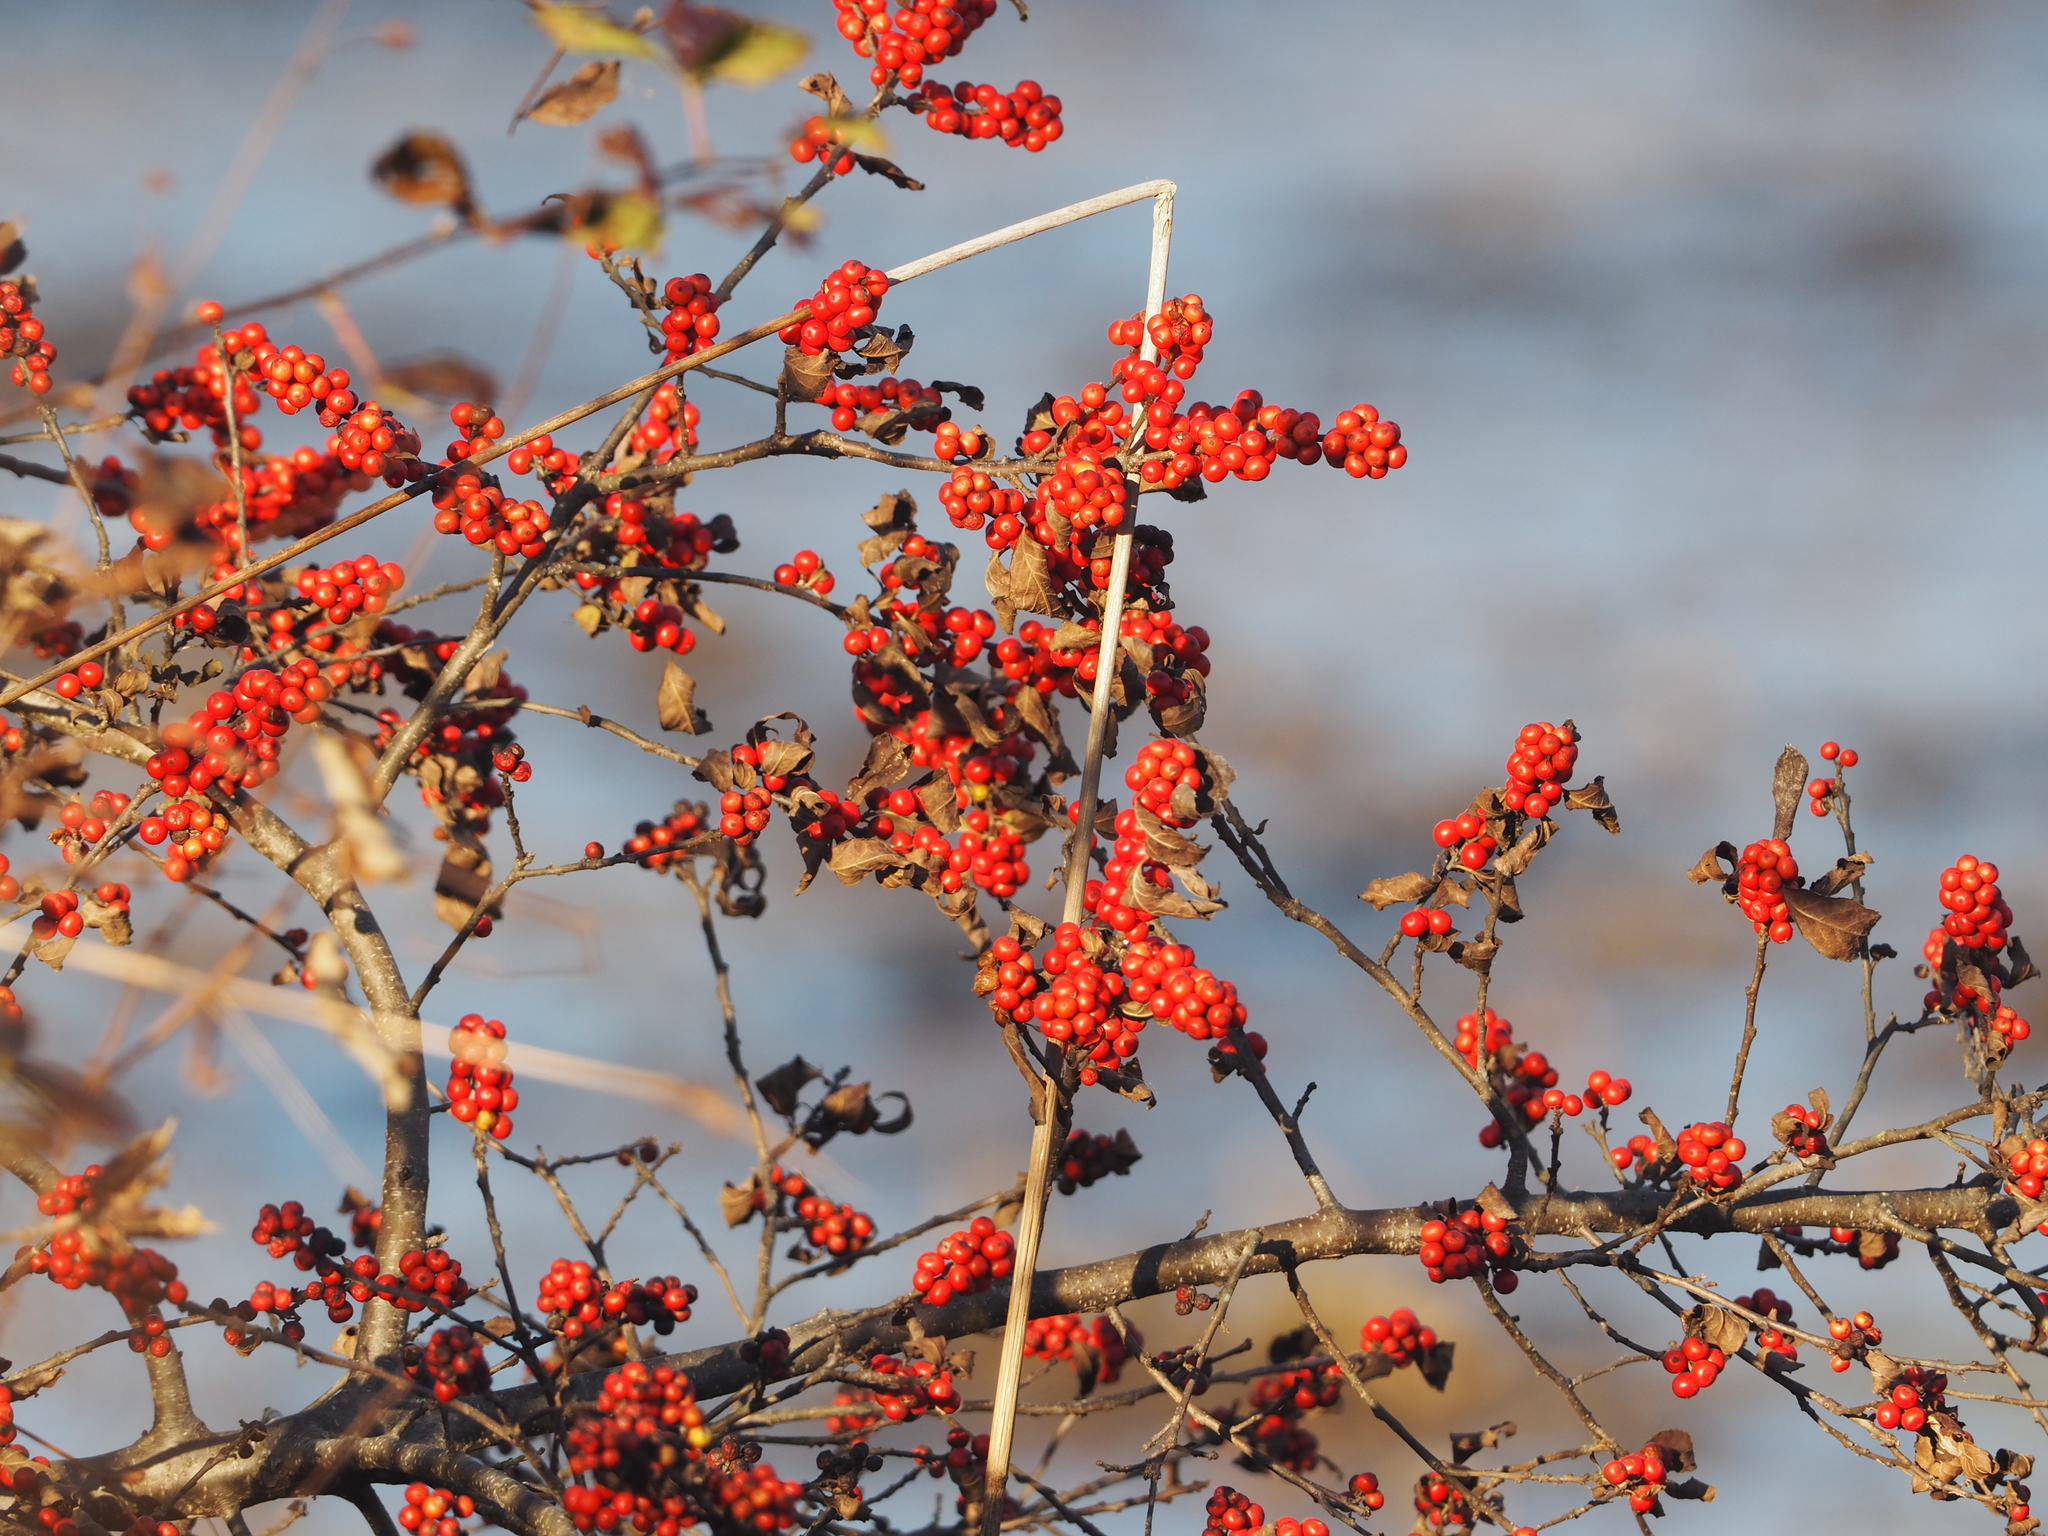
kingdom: Plantae
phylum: Tracheophyta
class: Magnoliopsida
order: Aquifoliales
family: Aquifoliaceae
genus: Ilex
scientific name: Ilex verticillata
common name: Virginia winterberry
